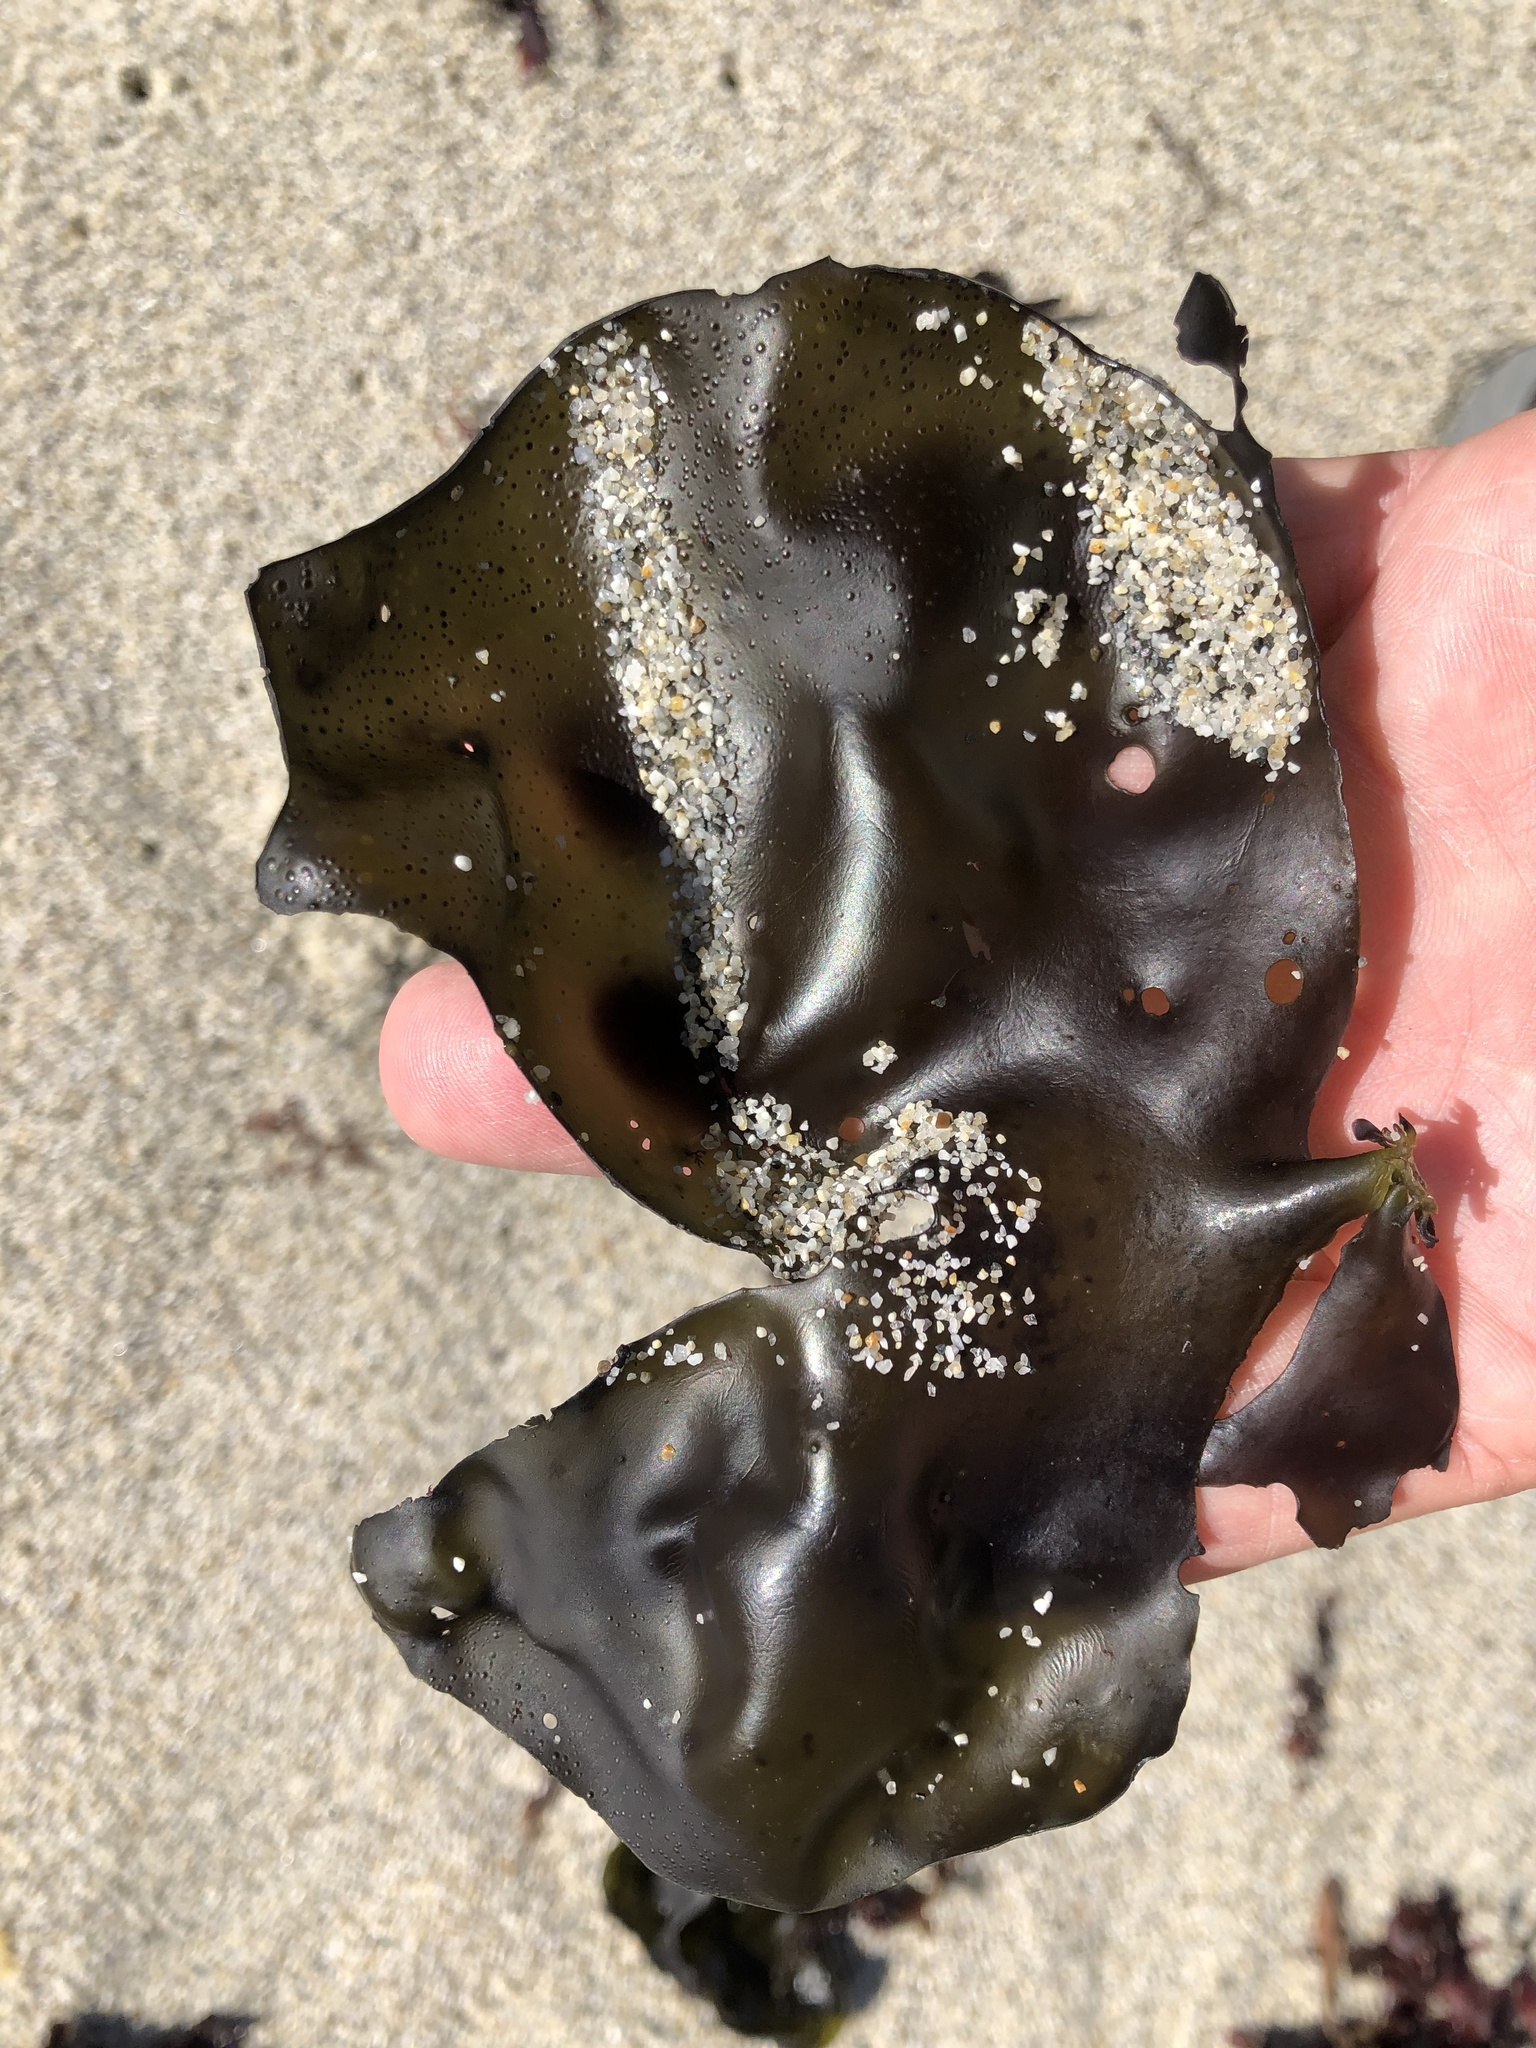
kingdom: Plantae
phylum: Rhodophyta
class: Florideophyceae
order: Gigartinales
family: Gigartinaceae
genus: Mazzaella
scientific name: Mazzaella flaccida
